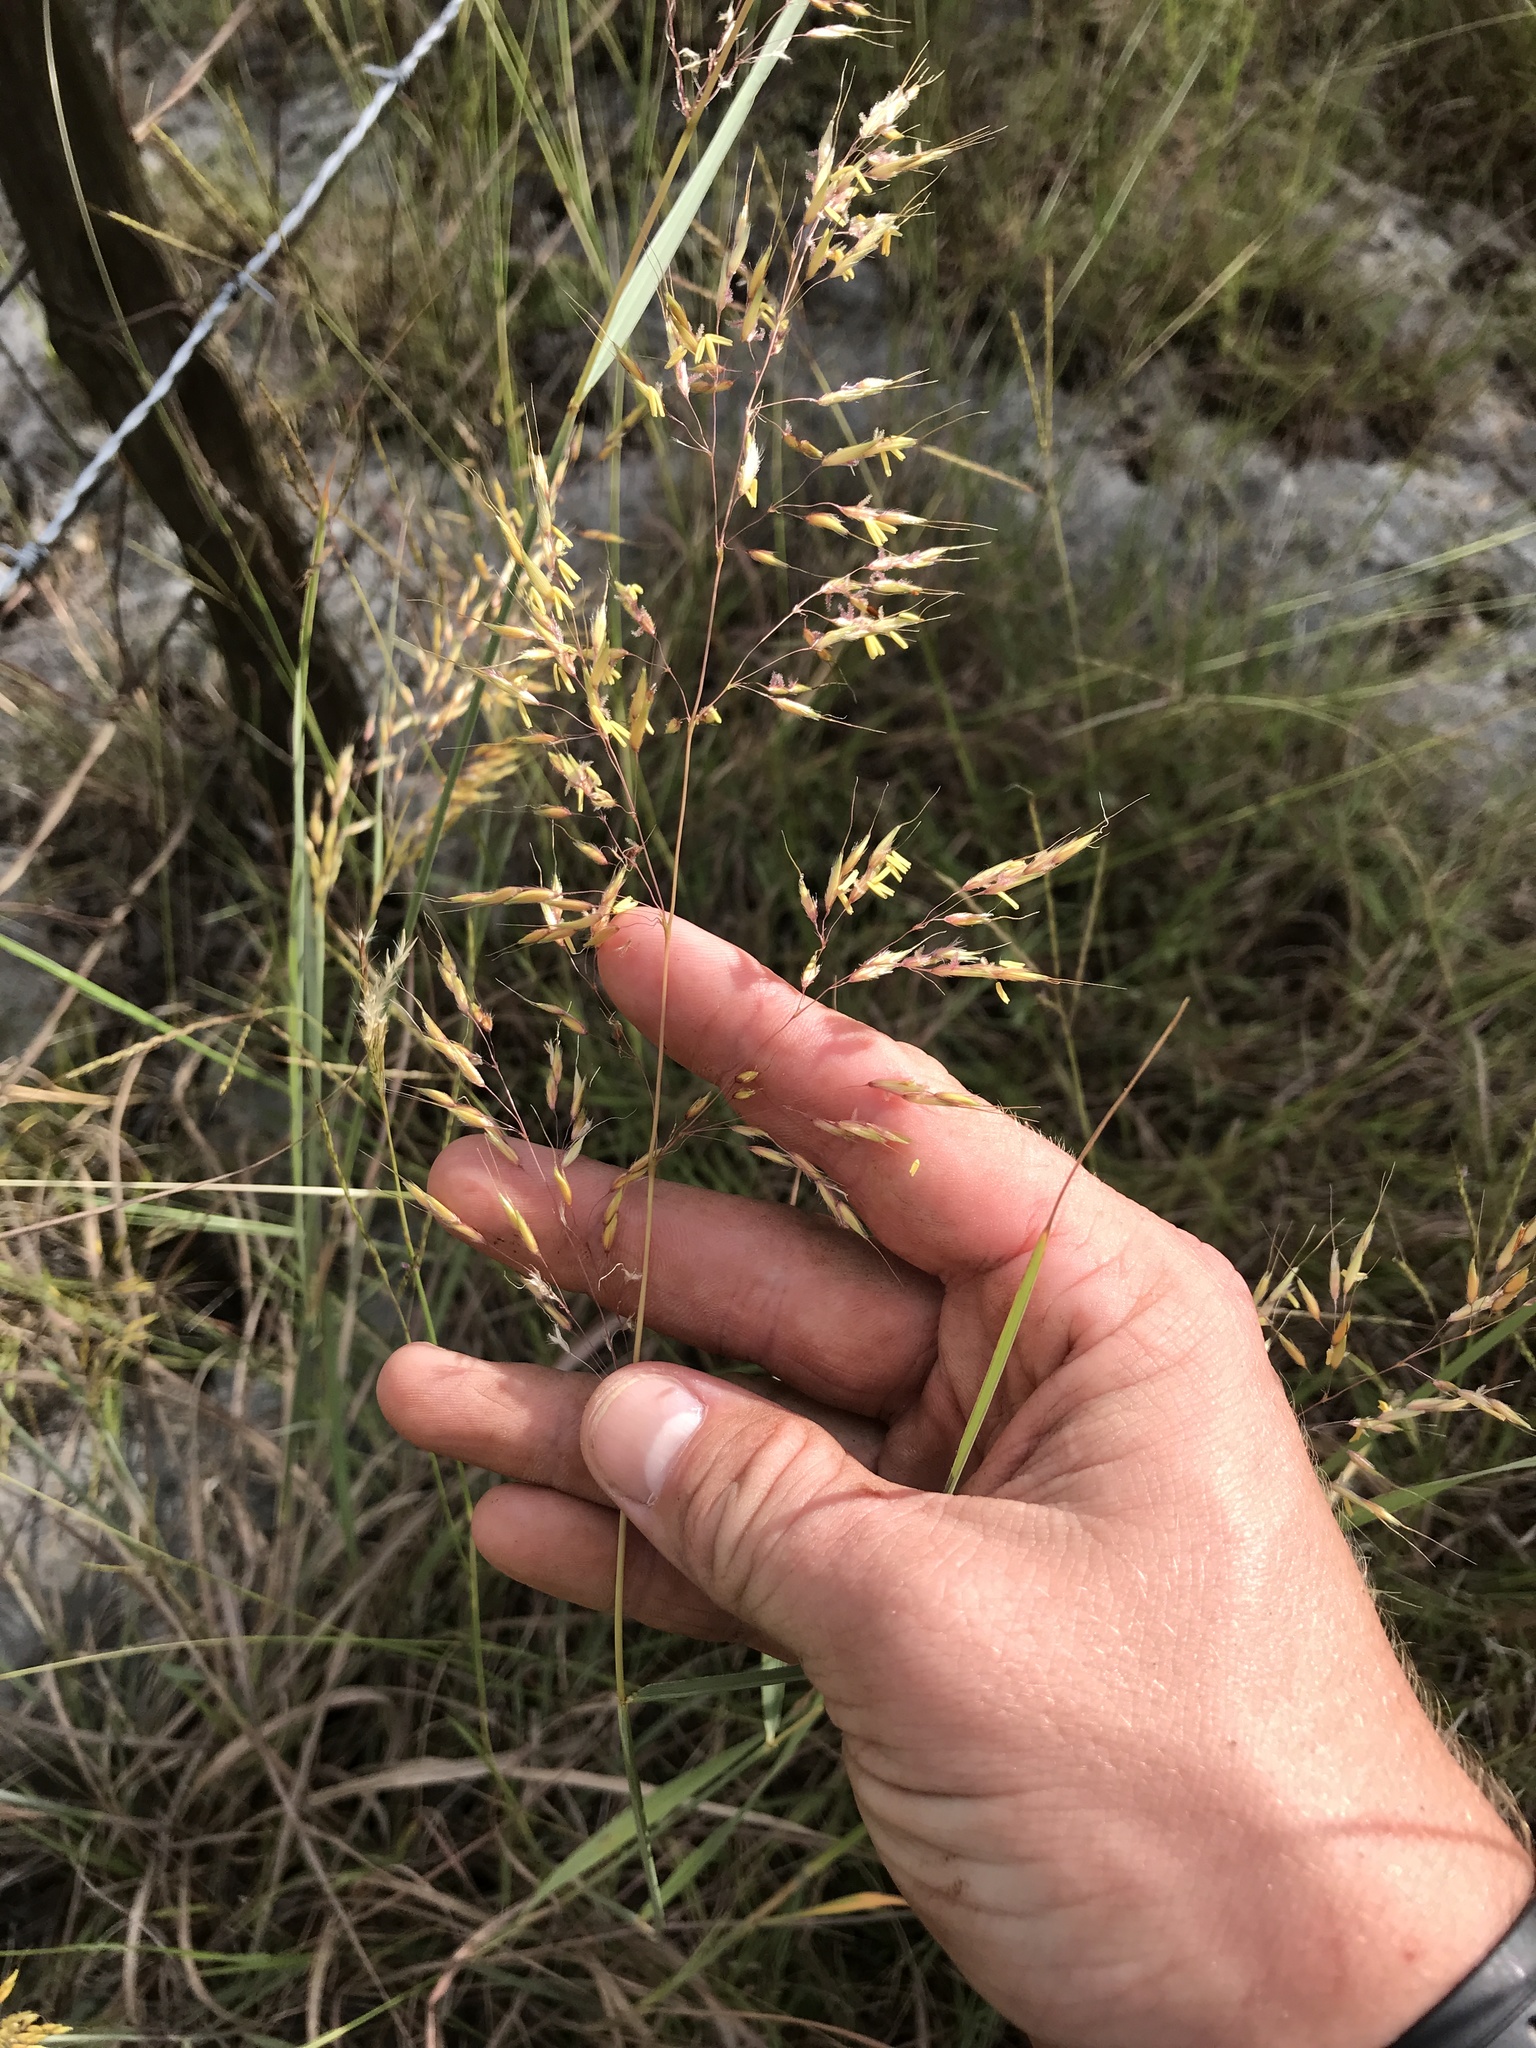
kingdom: Plantae
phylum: Tracheophyta
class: Liliopsida
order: Poales
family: Poaceae
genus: Sorghastrum
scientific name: Sorghastrum nutans
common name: Indian grass
